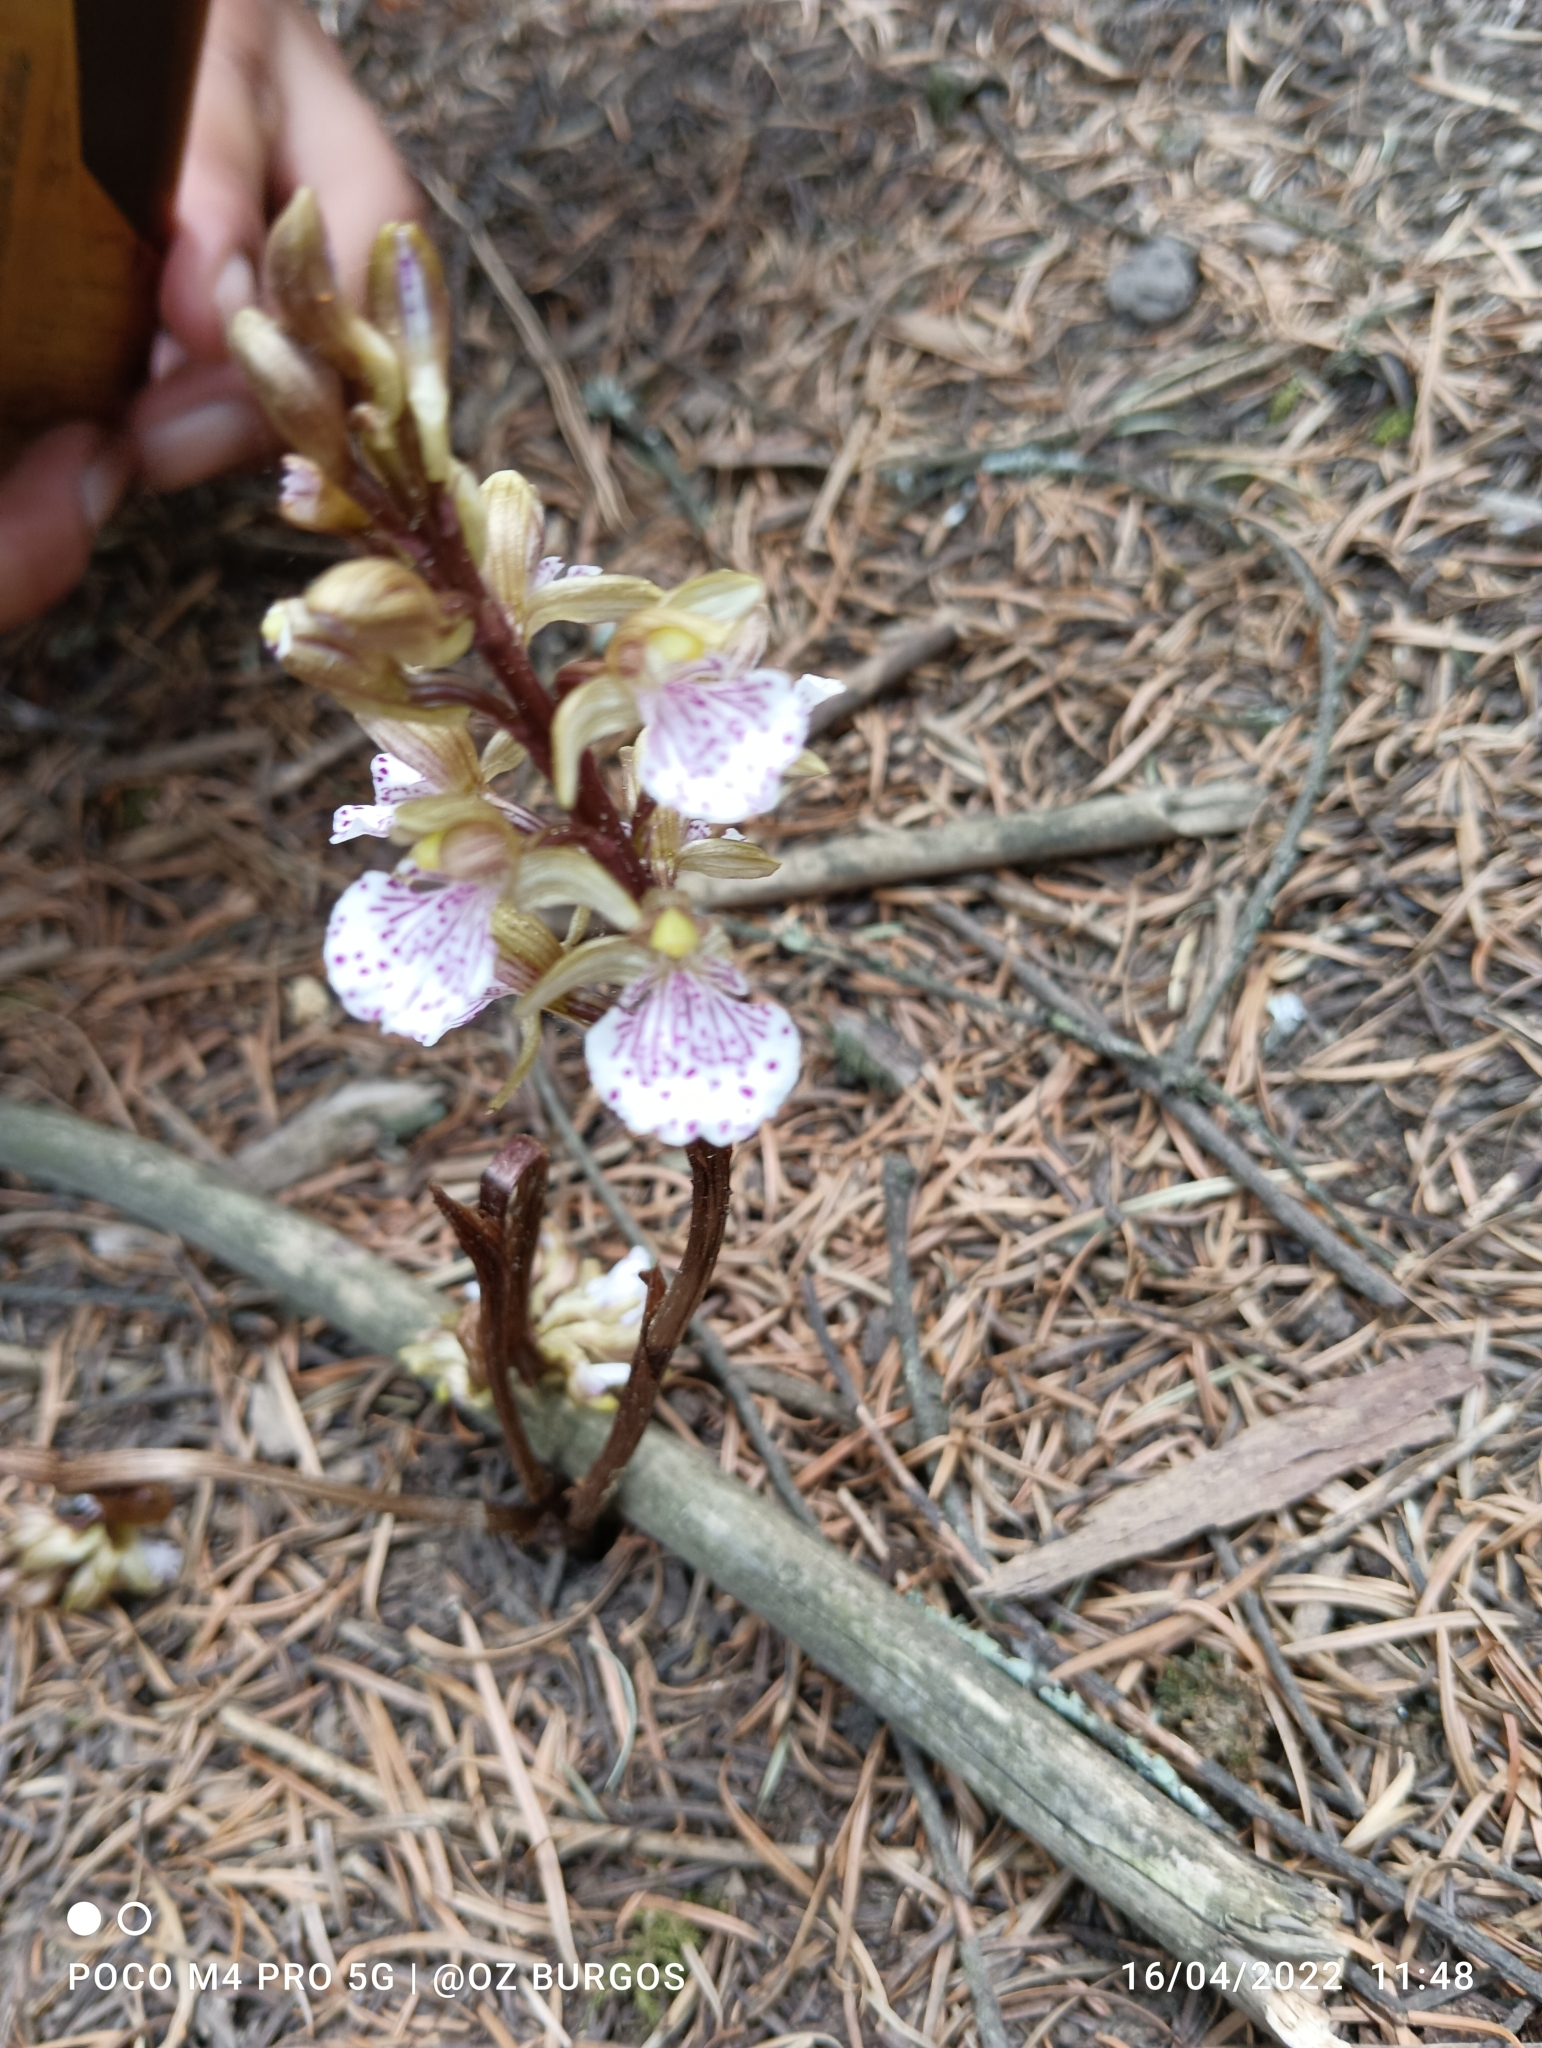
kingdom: Plantae
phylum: Tracheophyta
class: Liliopsida
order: Asparagales
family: Orchidaceae
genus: Corallorhiza
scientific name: Corallorhiza macrantha
